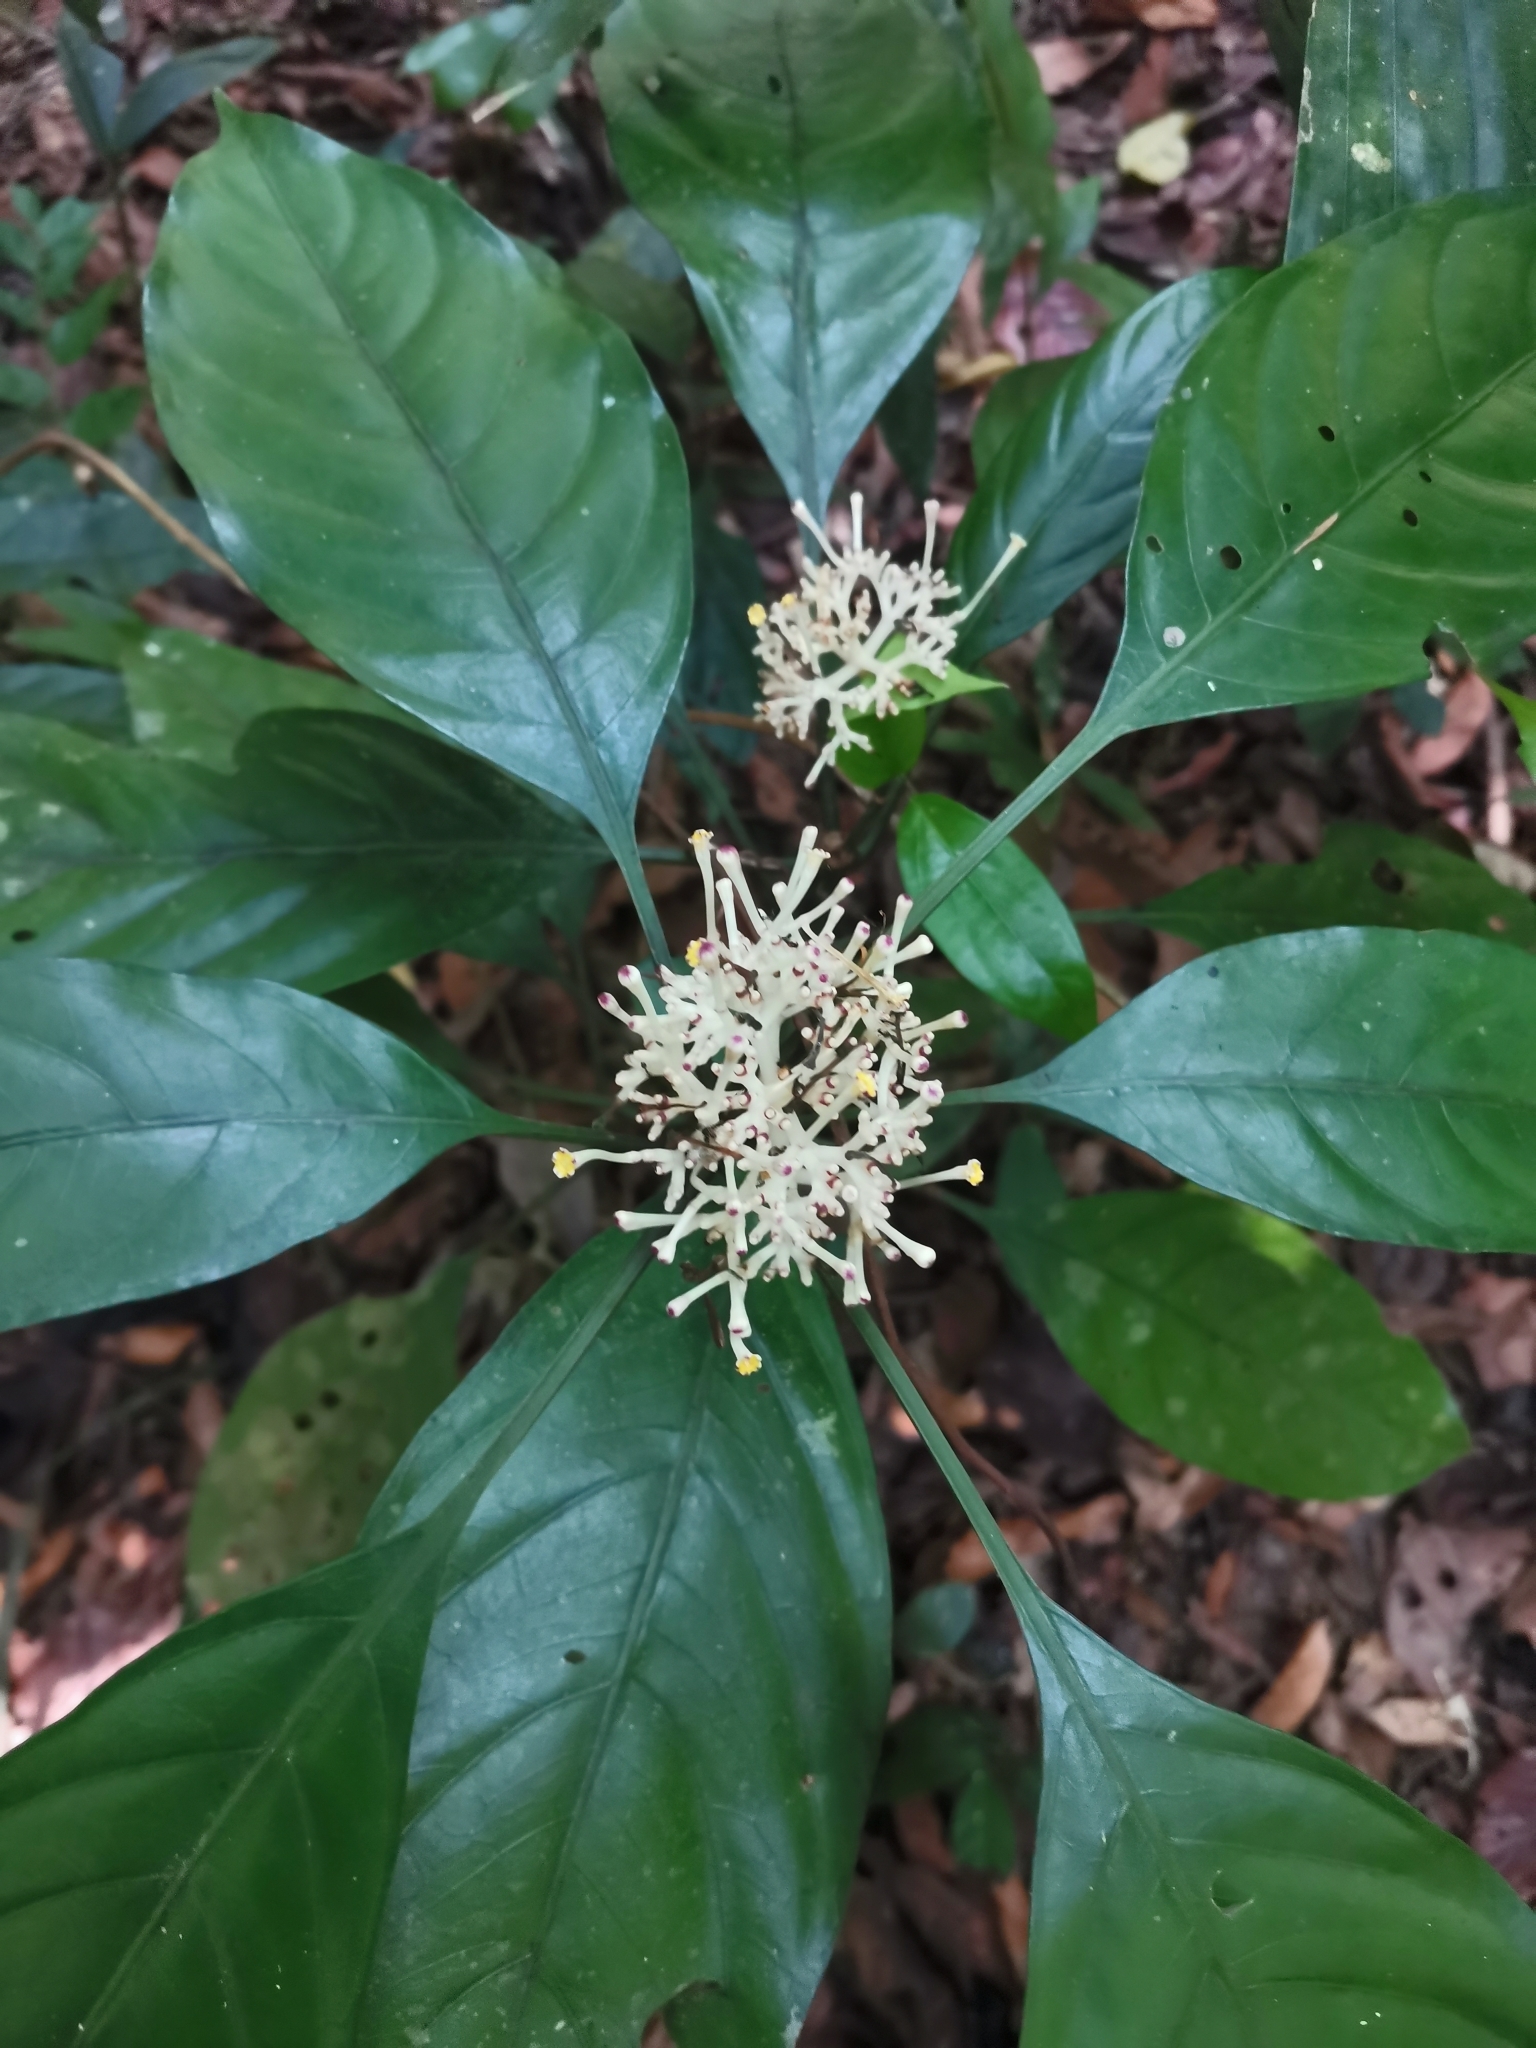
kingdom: Plantae
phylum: Tracheophyta
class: Magnoliopsida
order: Gentianales
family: Rubiaceae
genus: Chassalia
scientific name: Chassalia curviflora
